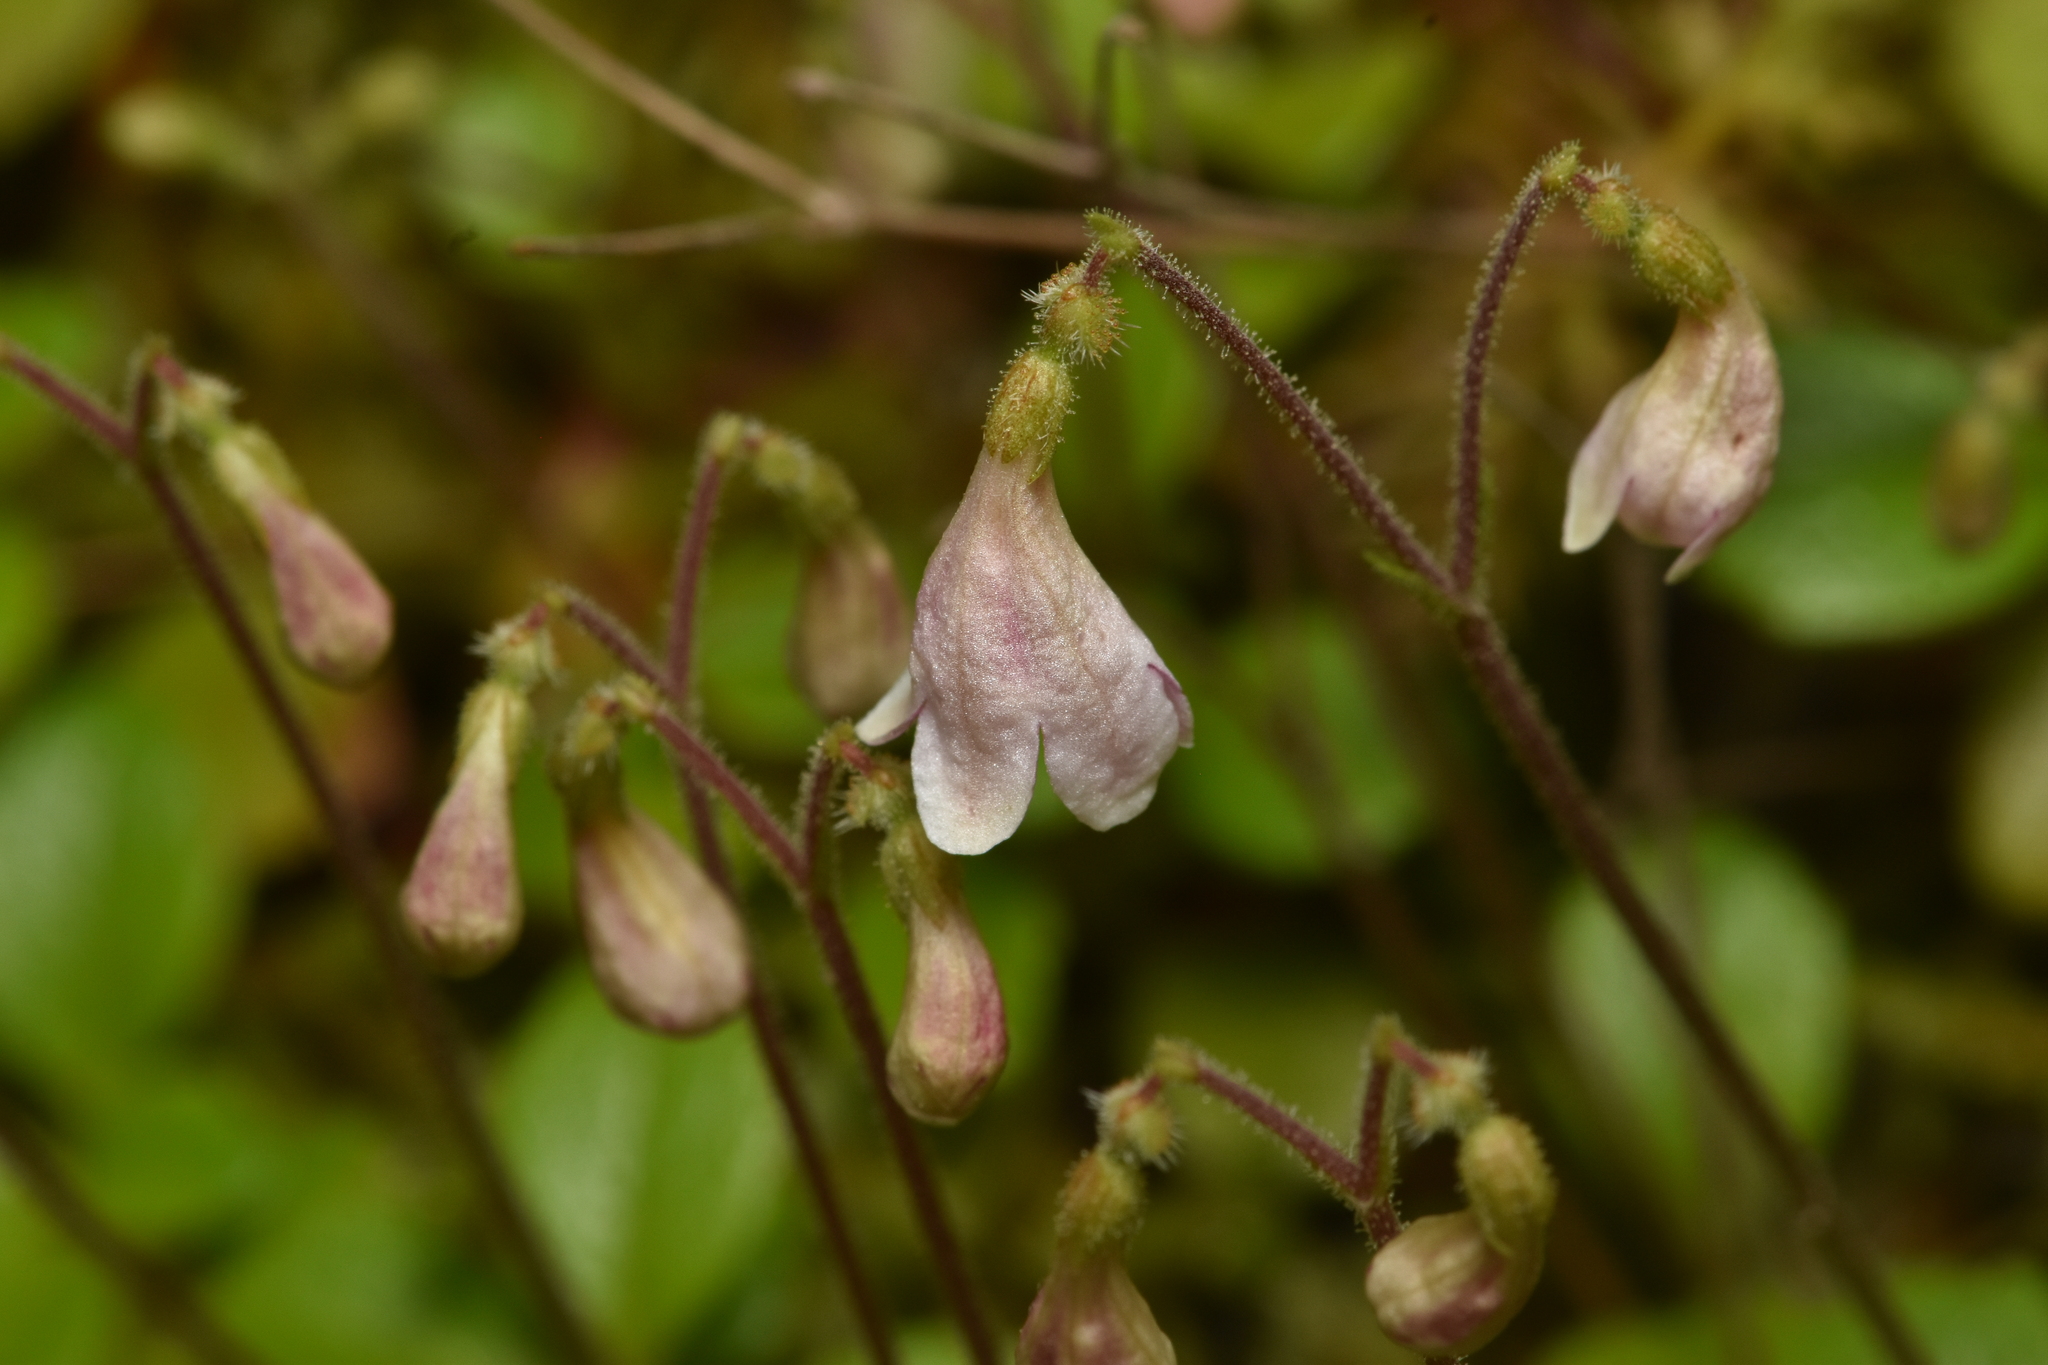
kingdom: Plantae
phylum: Tracheophyta
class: Magnoliopsida
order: Dipsacales
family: Caprifoliaceae
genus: Linnaea
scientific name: Linnaea borealis
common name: Twinflower
